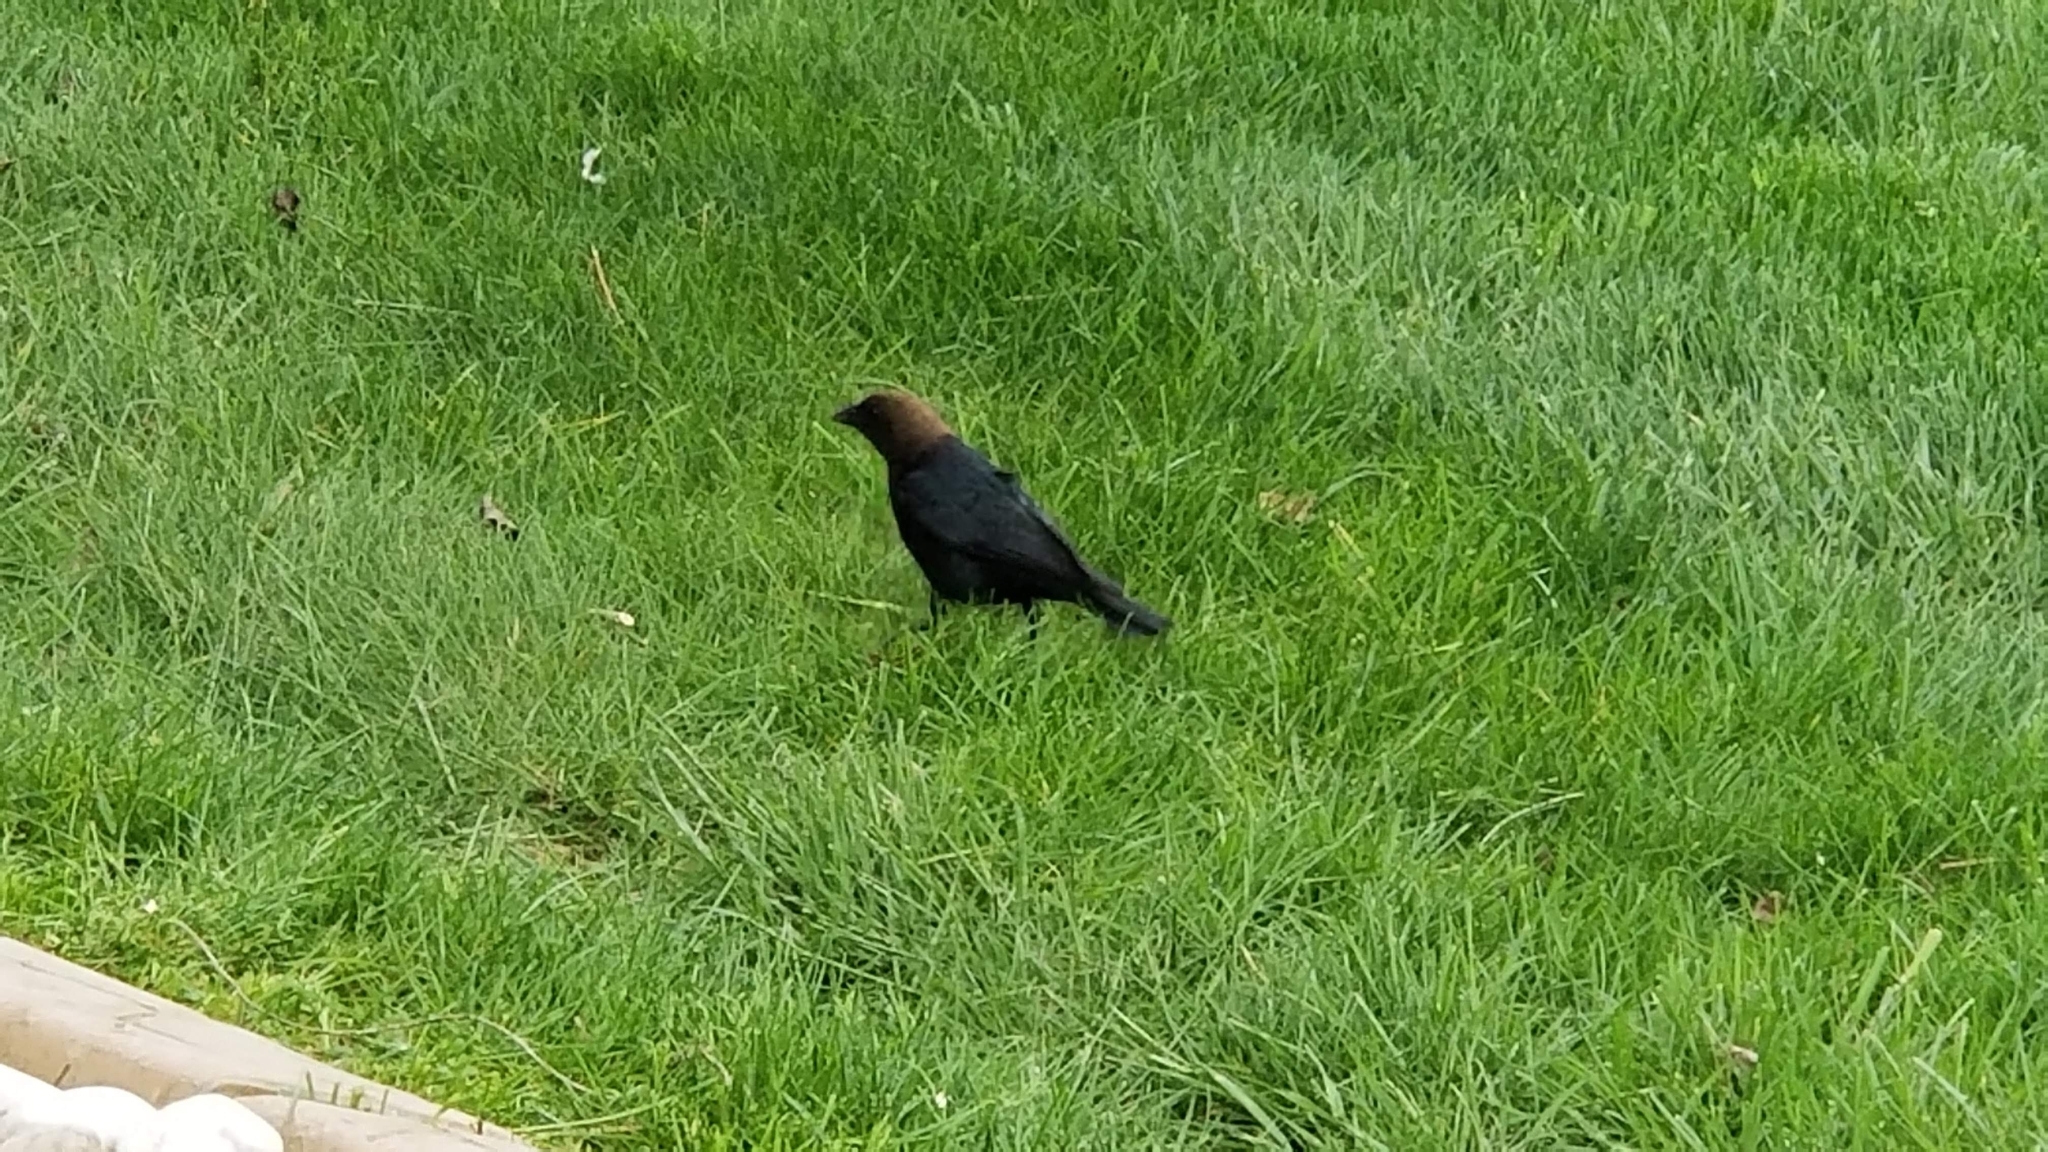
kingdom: Animalia
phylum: Chordata
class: Aves
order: Passeriformes
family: Icteridae
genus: Molothrus
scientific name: Molothrus ater
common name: Brown-headed cowbird
